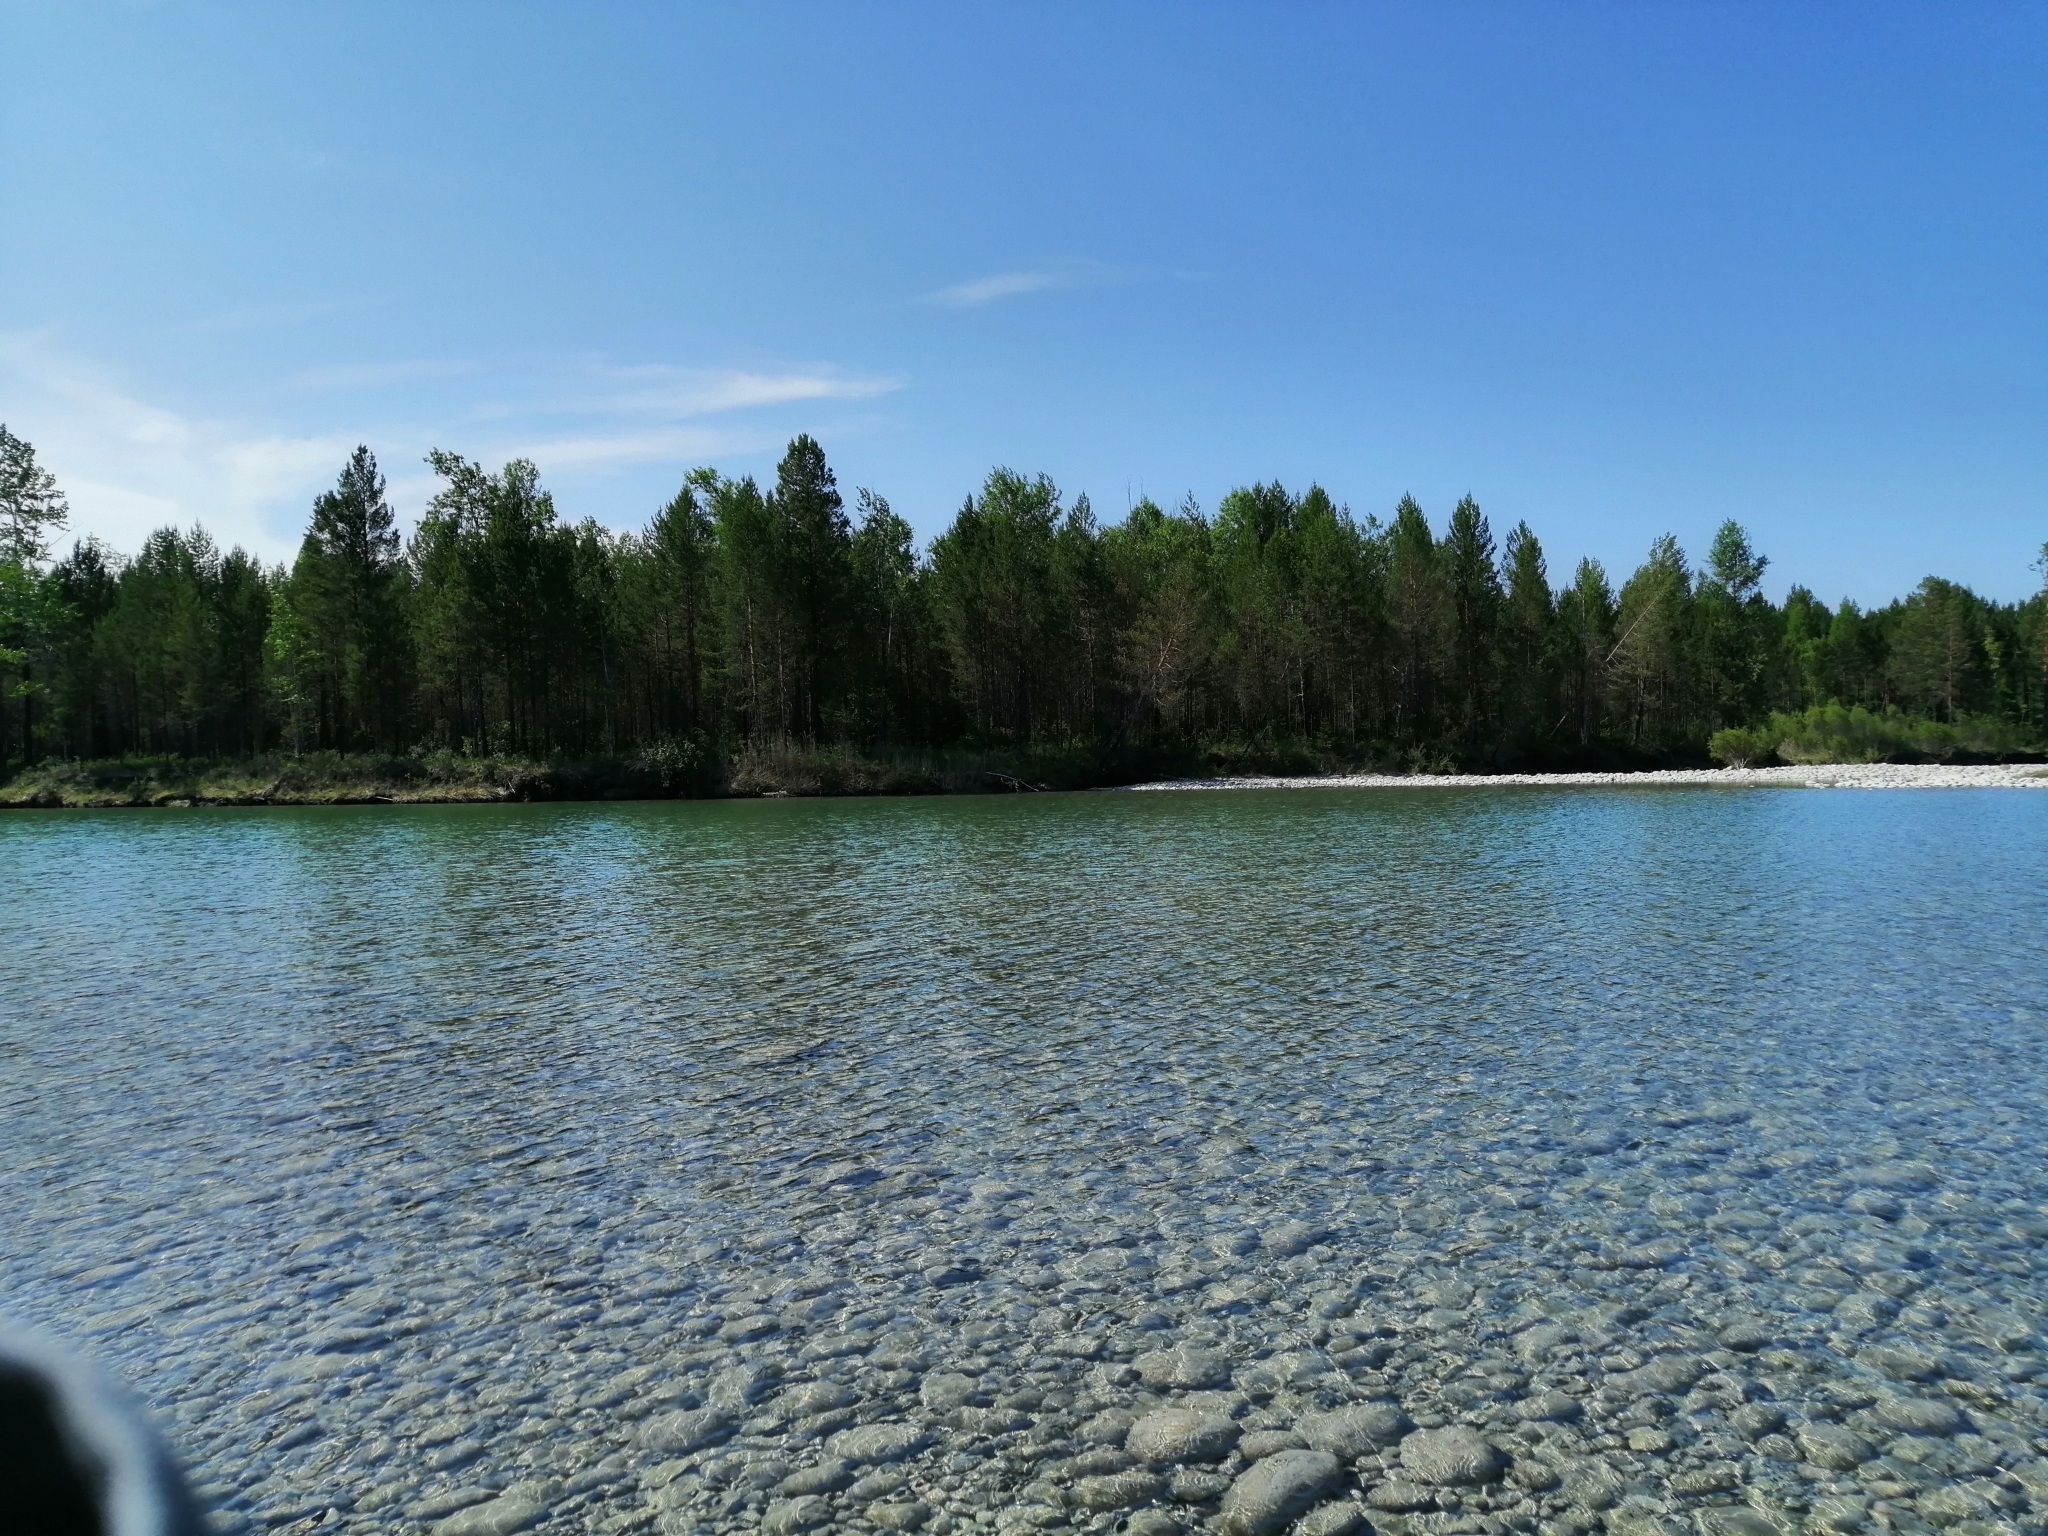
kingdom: Plantae
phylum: Tracheophyta
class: Pinopsida
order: Pinales
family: Pinaceae
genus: Pinus
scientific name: Pinus sylvestris
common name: Scots pine
